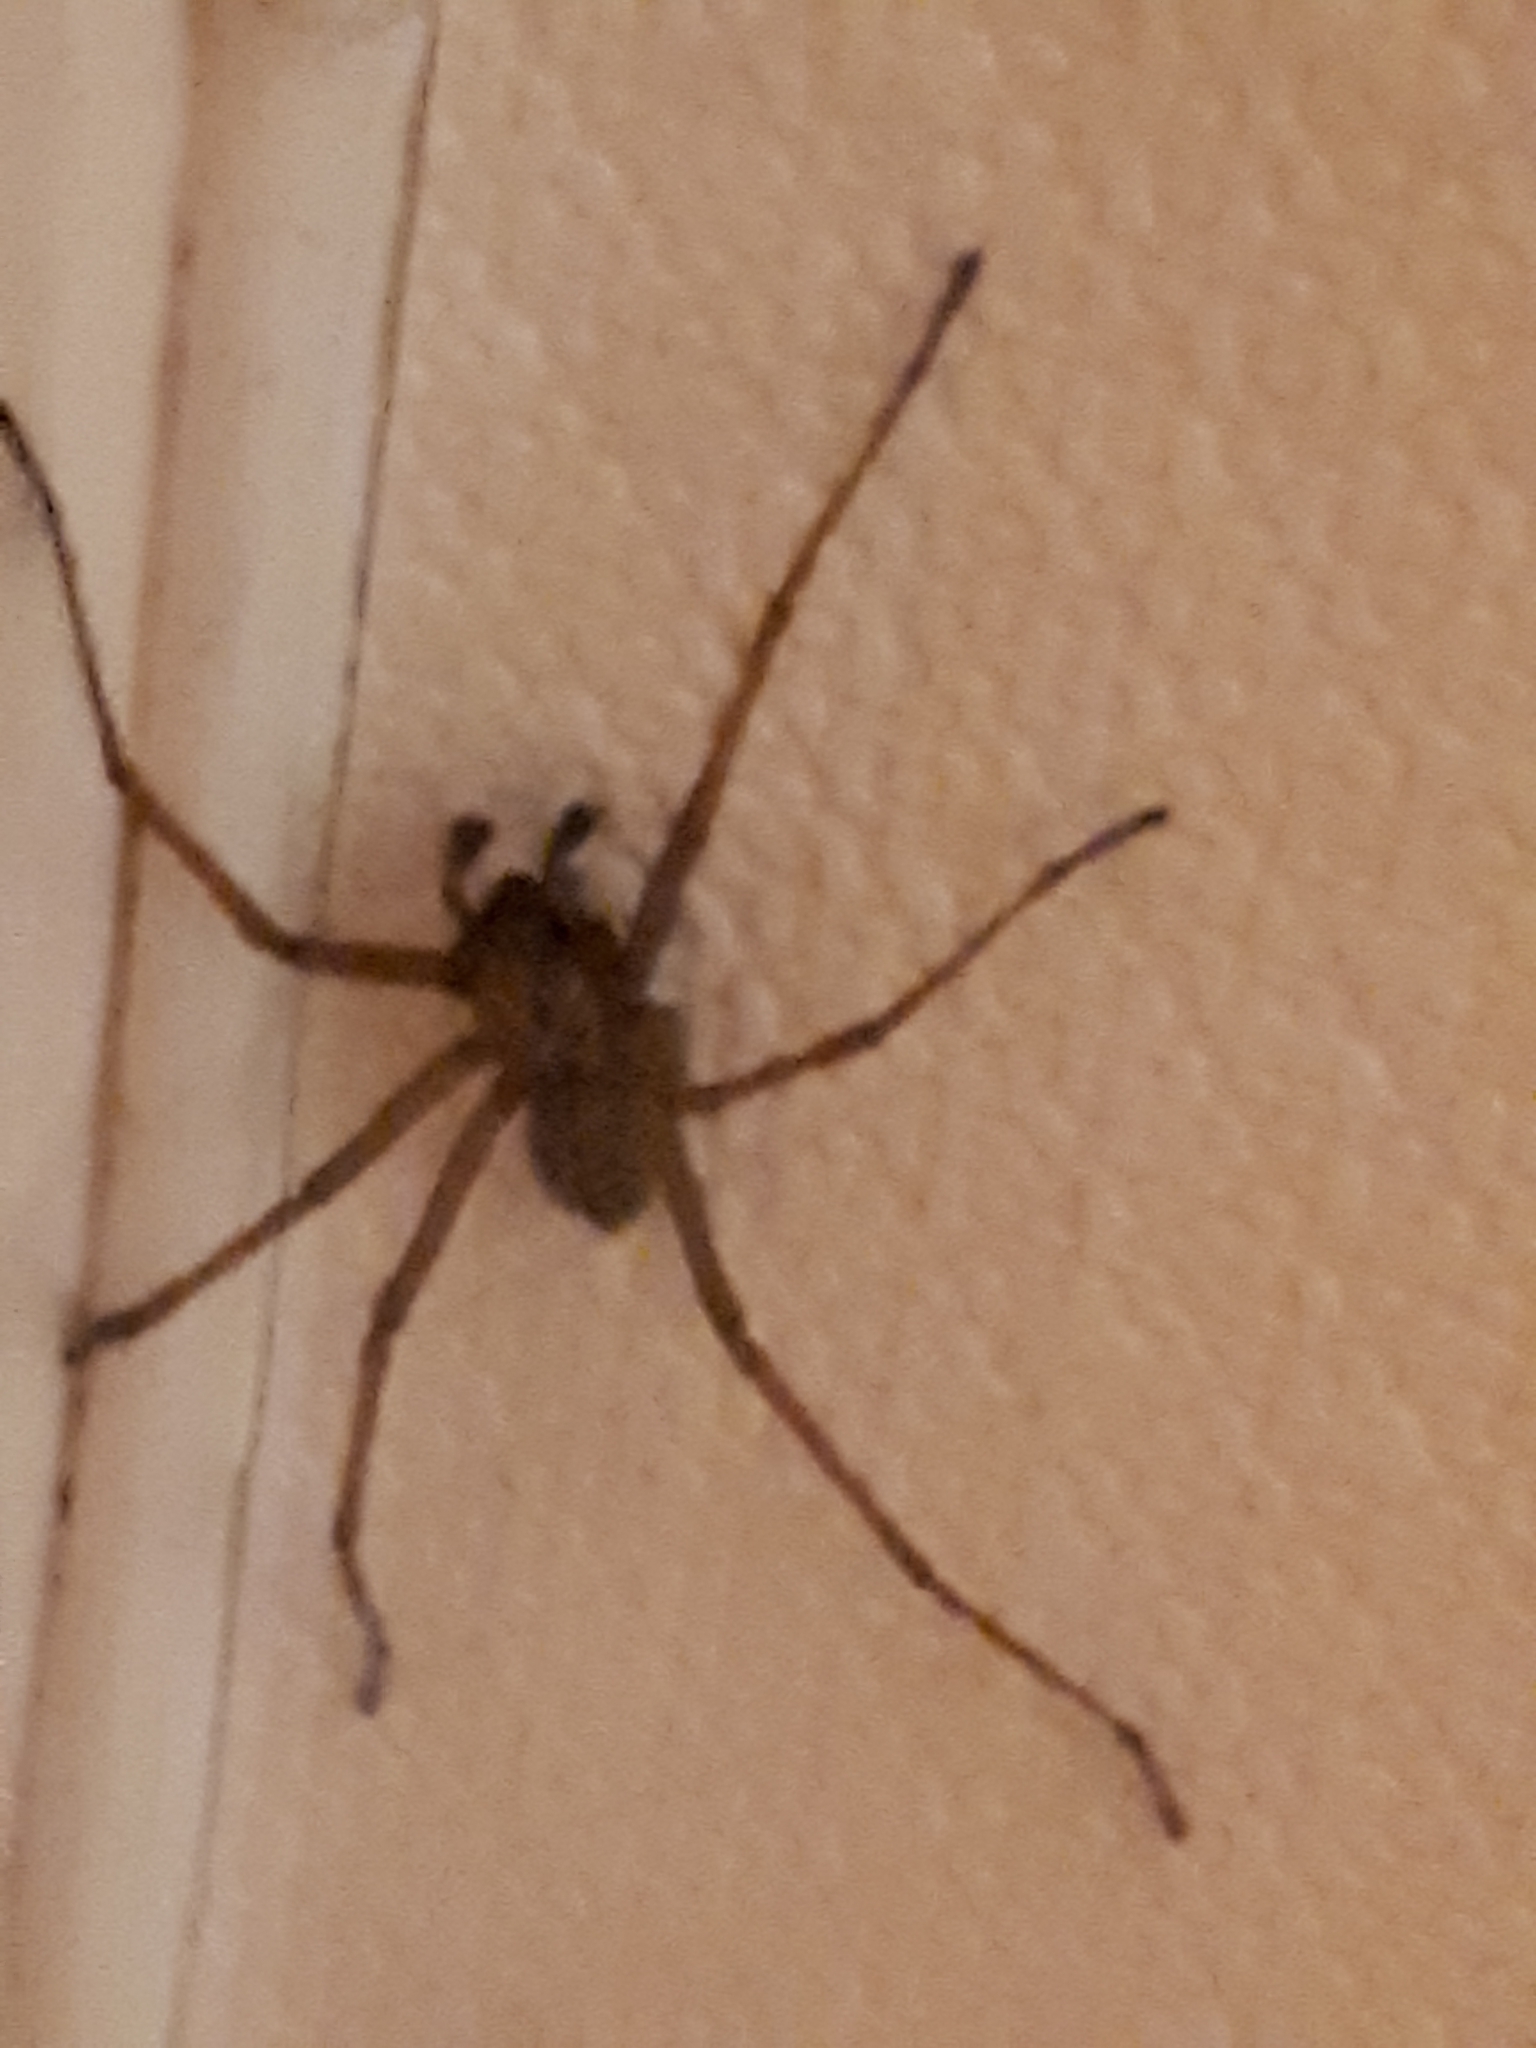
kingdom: Animalia
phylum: Arthropoda
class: Arachnida
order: Araneae
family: Agelenidae
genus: Eratigena
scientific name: Eratigena duellica
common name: Giant house spider
